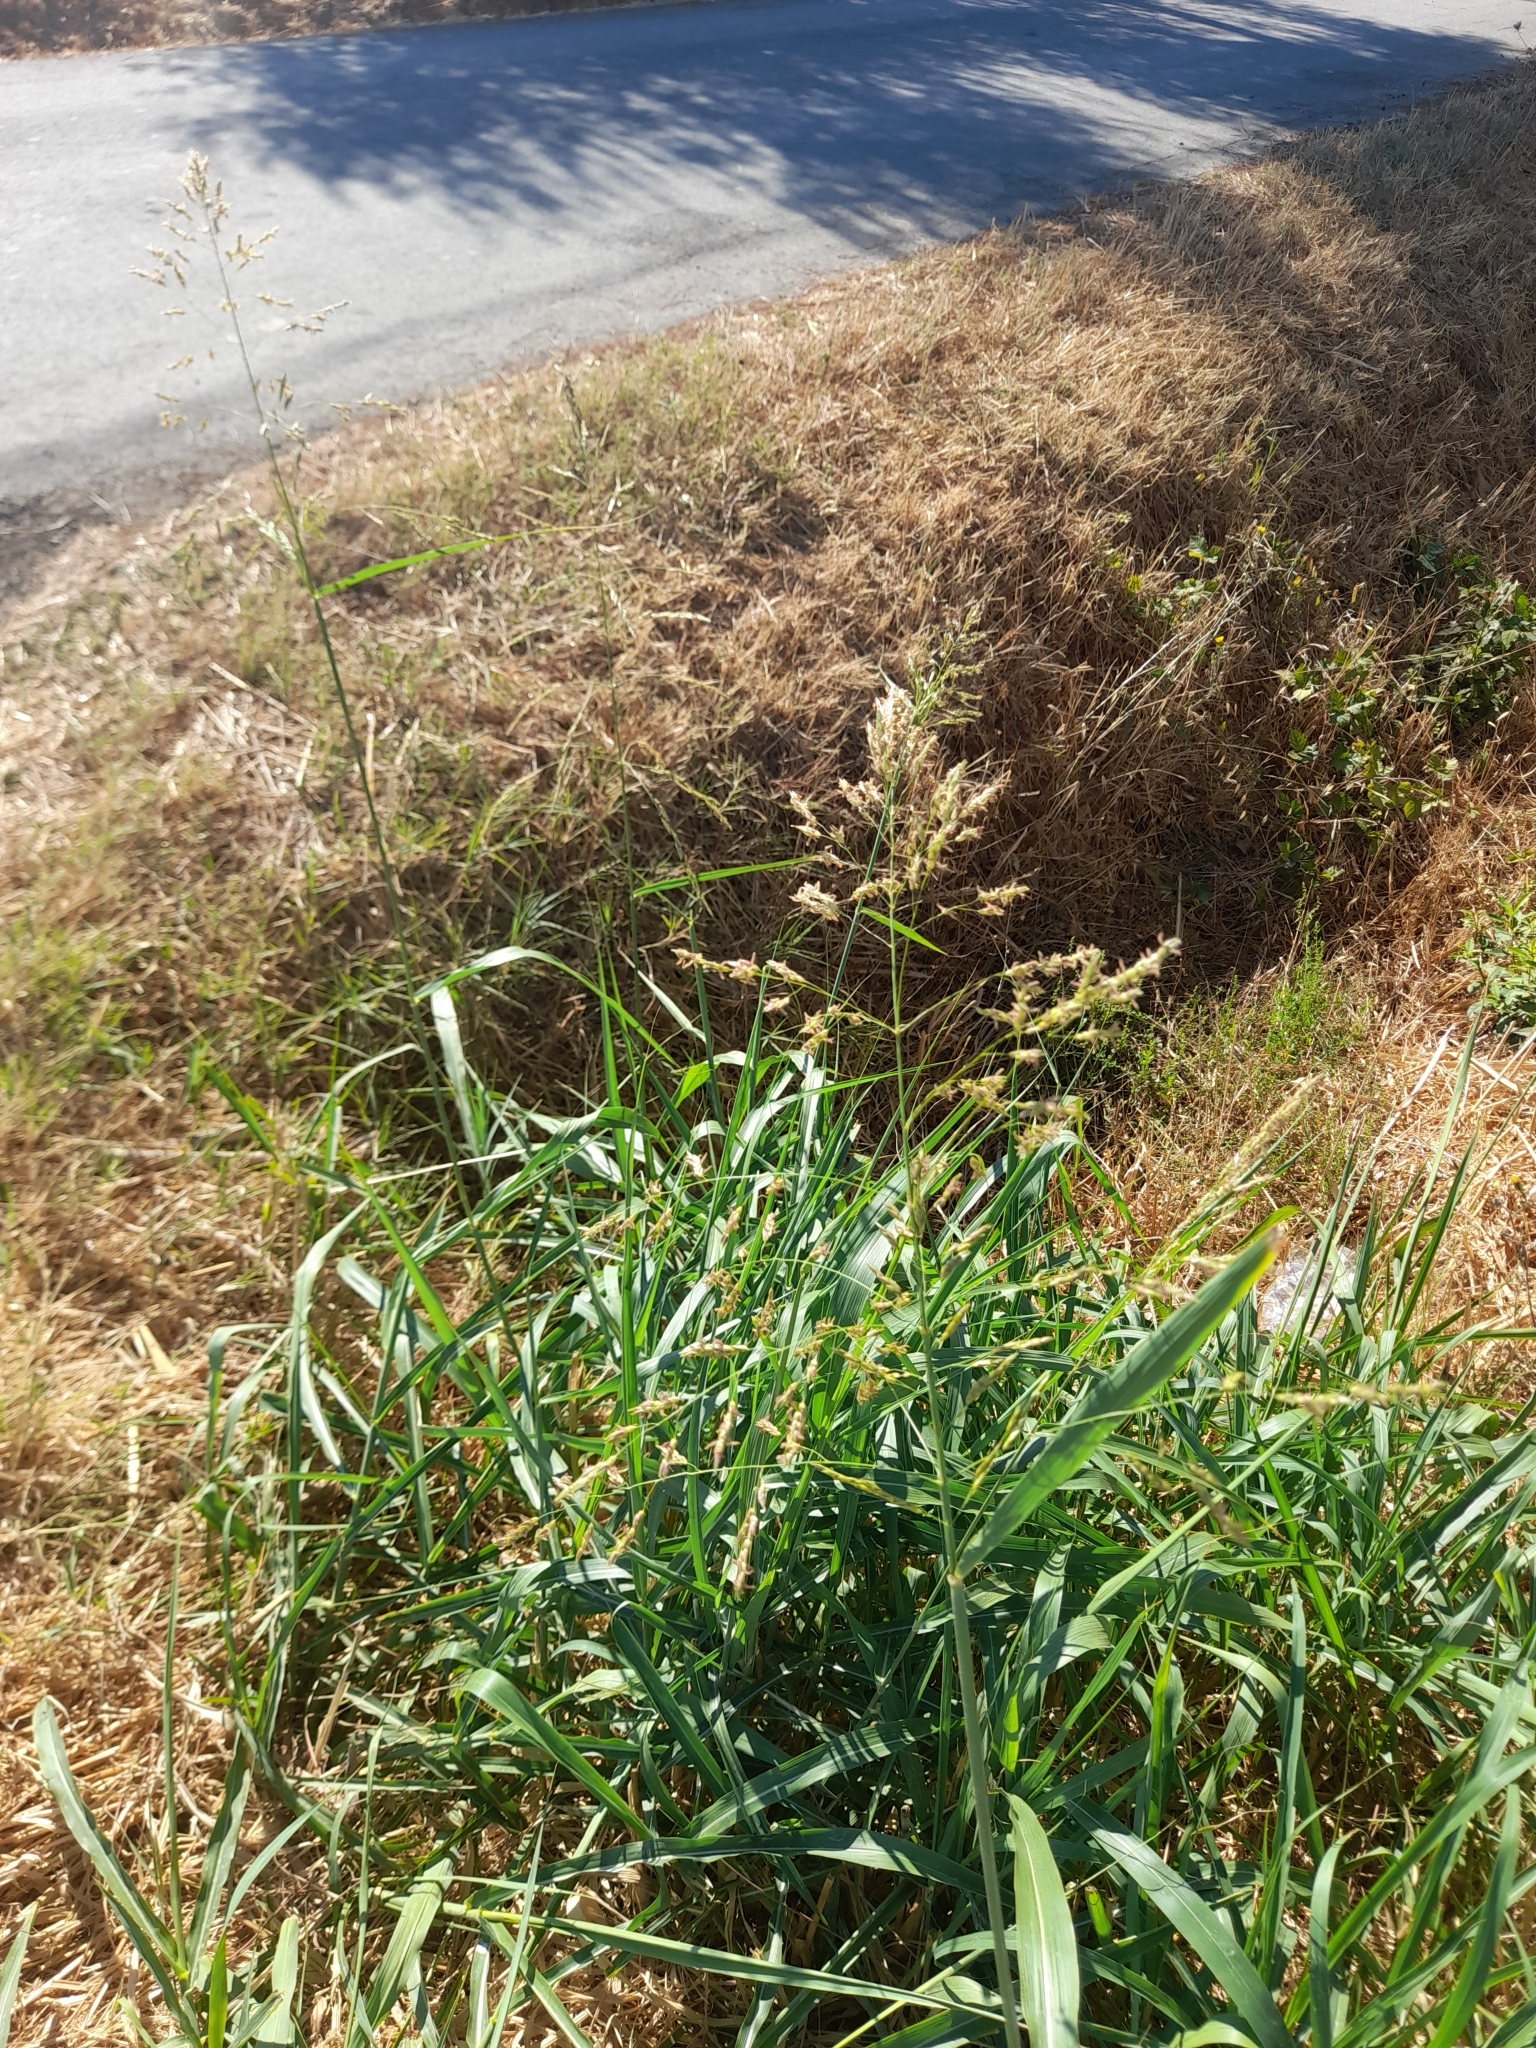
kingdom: Plantae
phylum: Tracheophyta
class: Liliopsida
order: Poales
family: Poaceae
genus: Sorghum
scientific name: Sorghum halepense
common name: Johnson-grass
